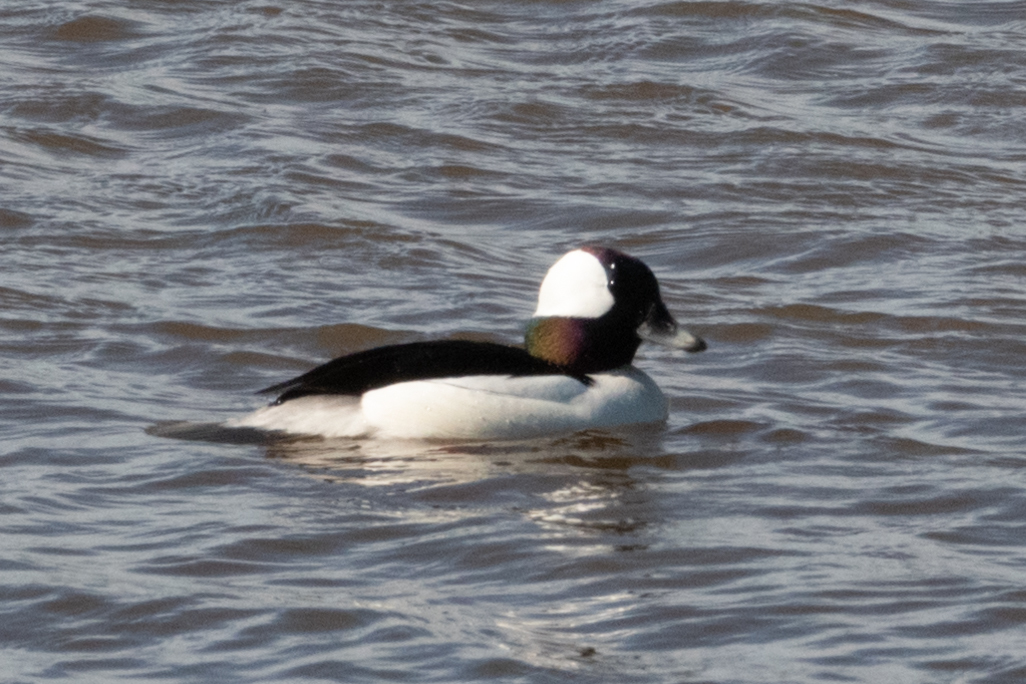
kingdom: Animalia
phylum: Chordata
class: Aves
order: Anseriformes
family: Anatidae
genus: Bucephala
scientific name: Bucephala albeola
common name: Bufflehead
